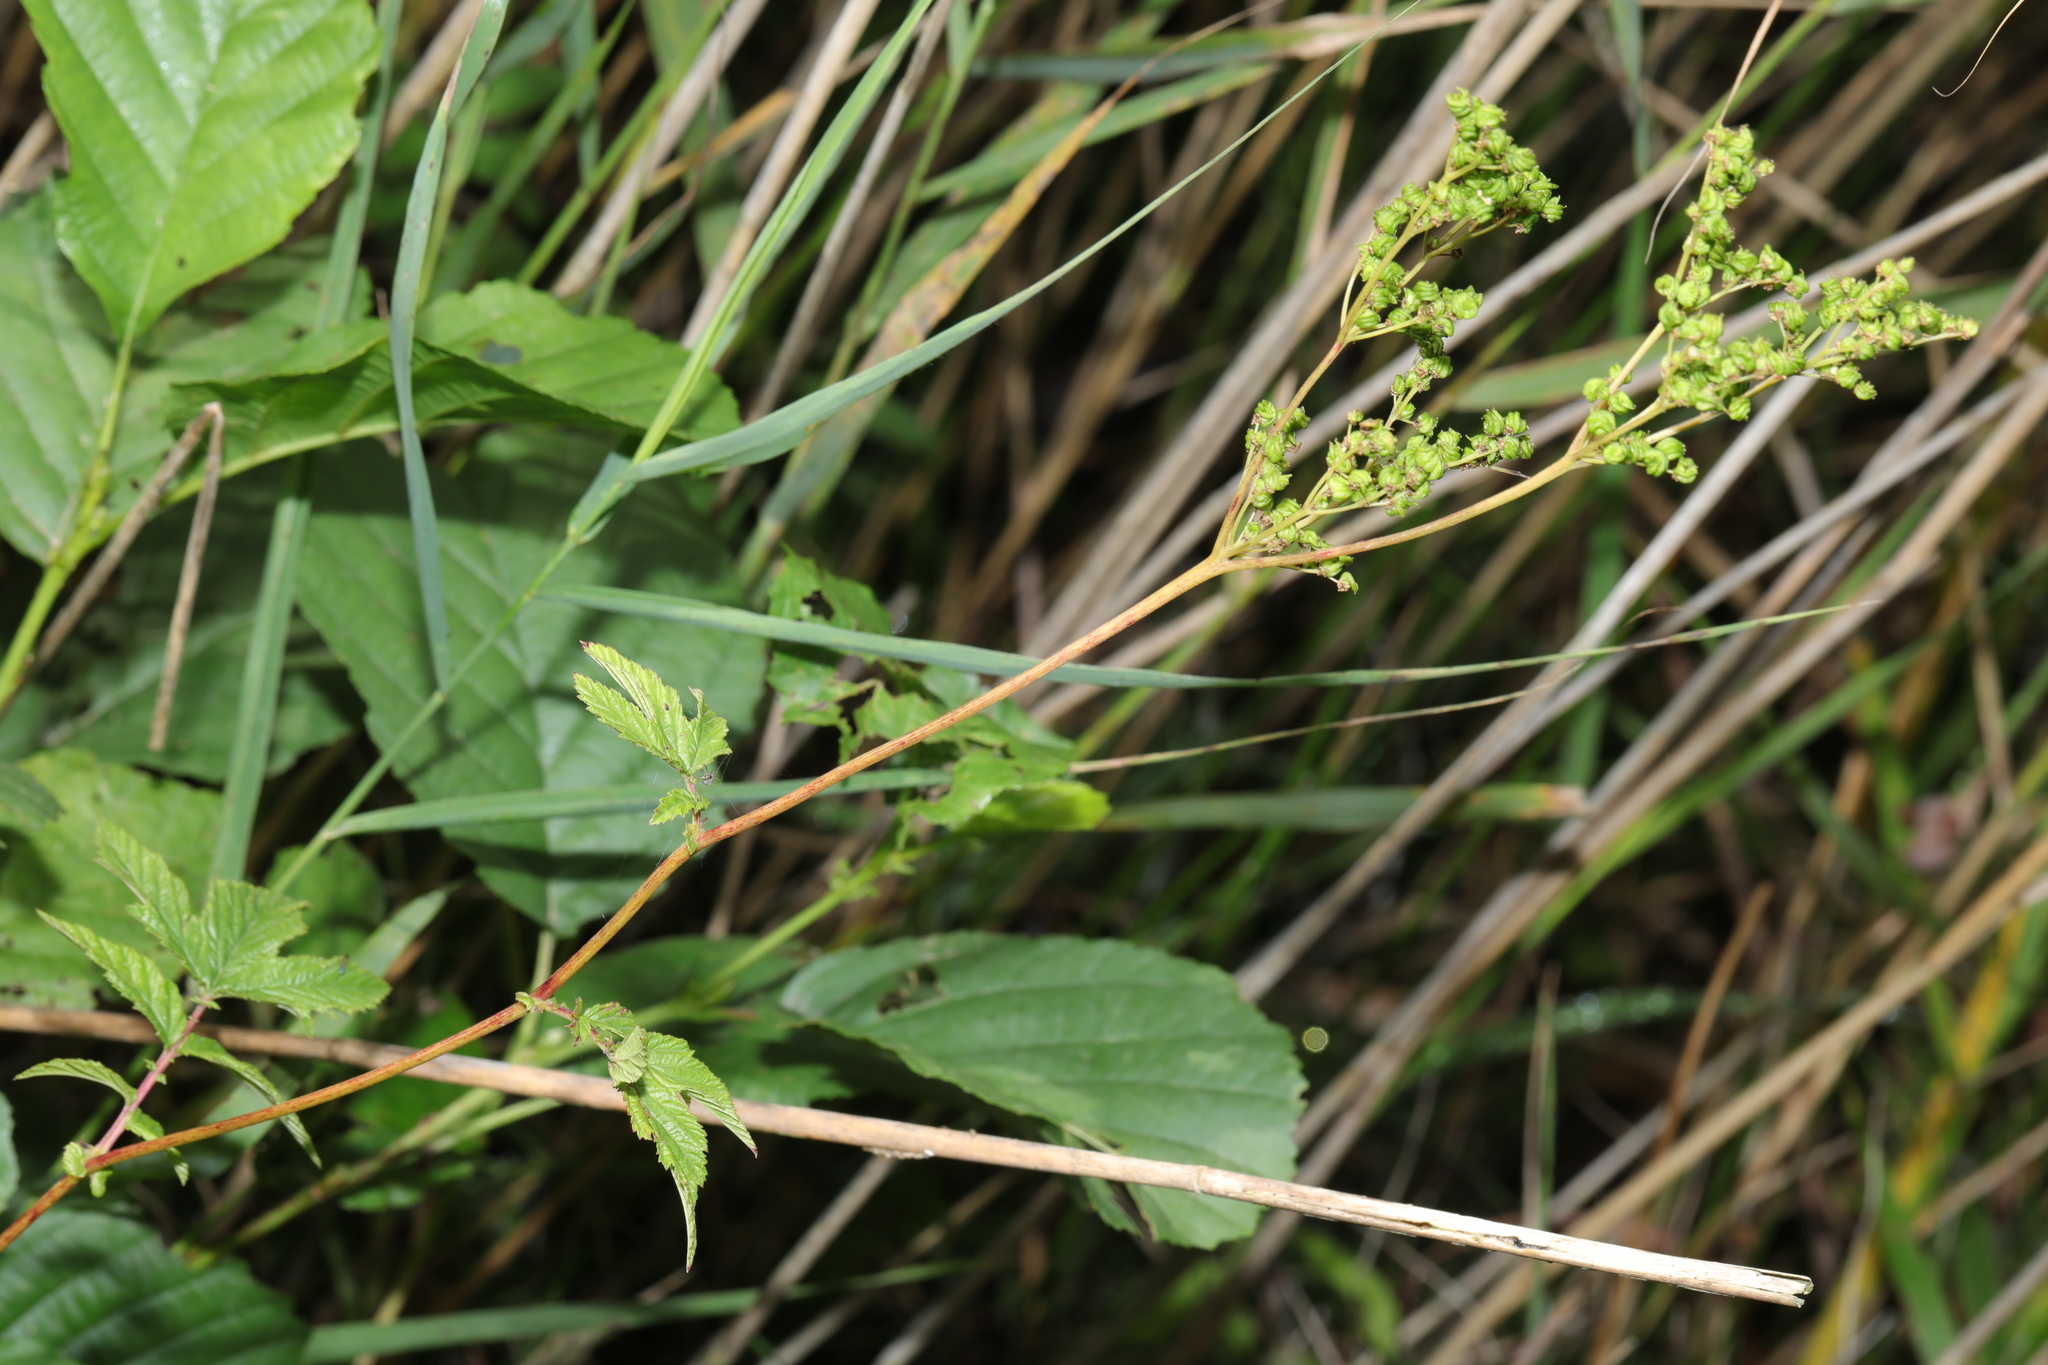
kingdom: Plantae
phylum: Tracheophyta
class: Magnoliopsida
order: Rosales
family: Rosaceae
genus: Filipendula
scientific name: Filipendula ulmaria
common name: Meadowsweet
